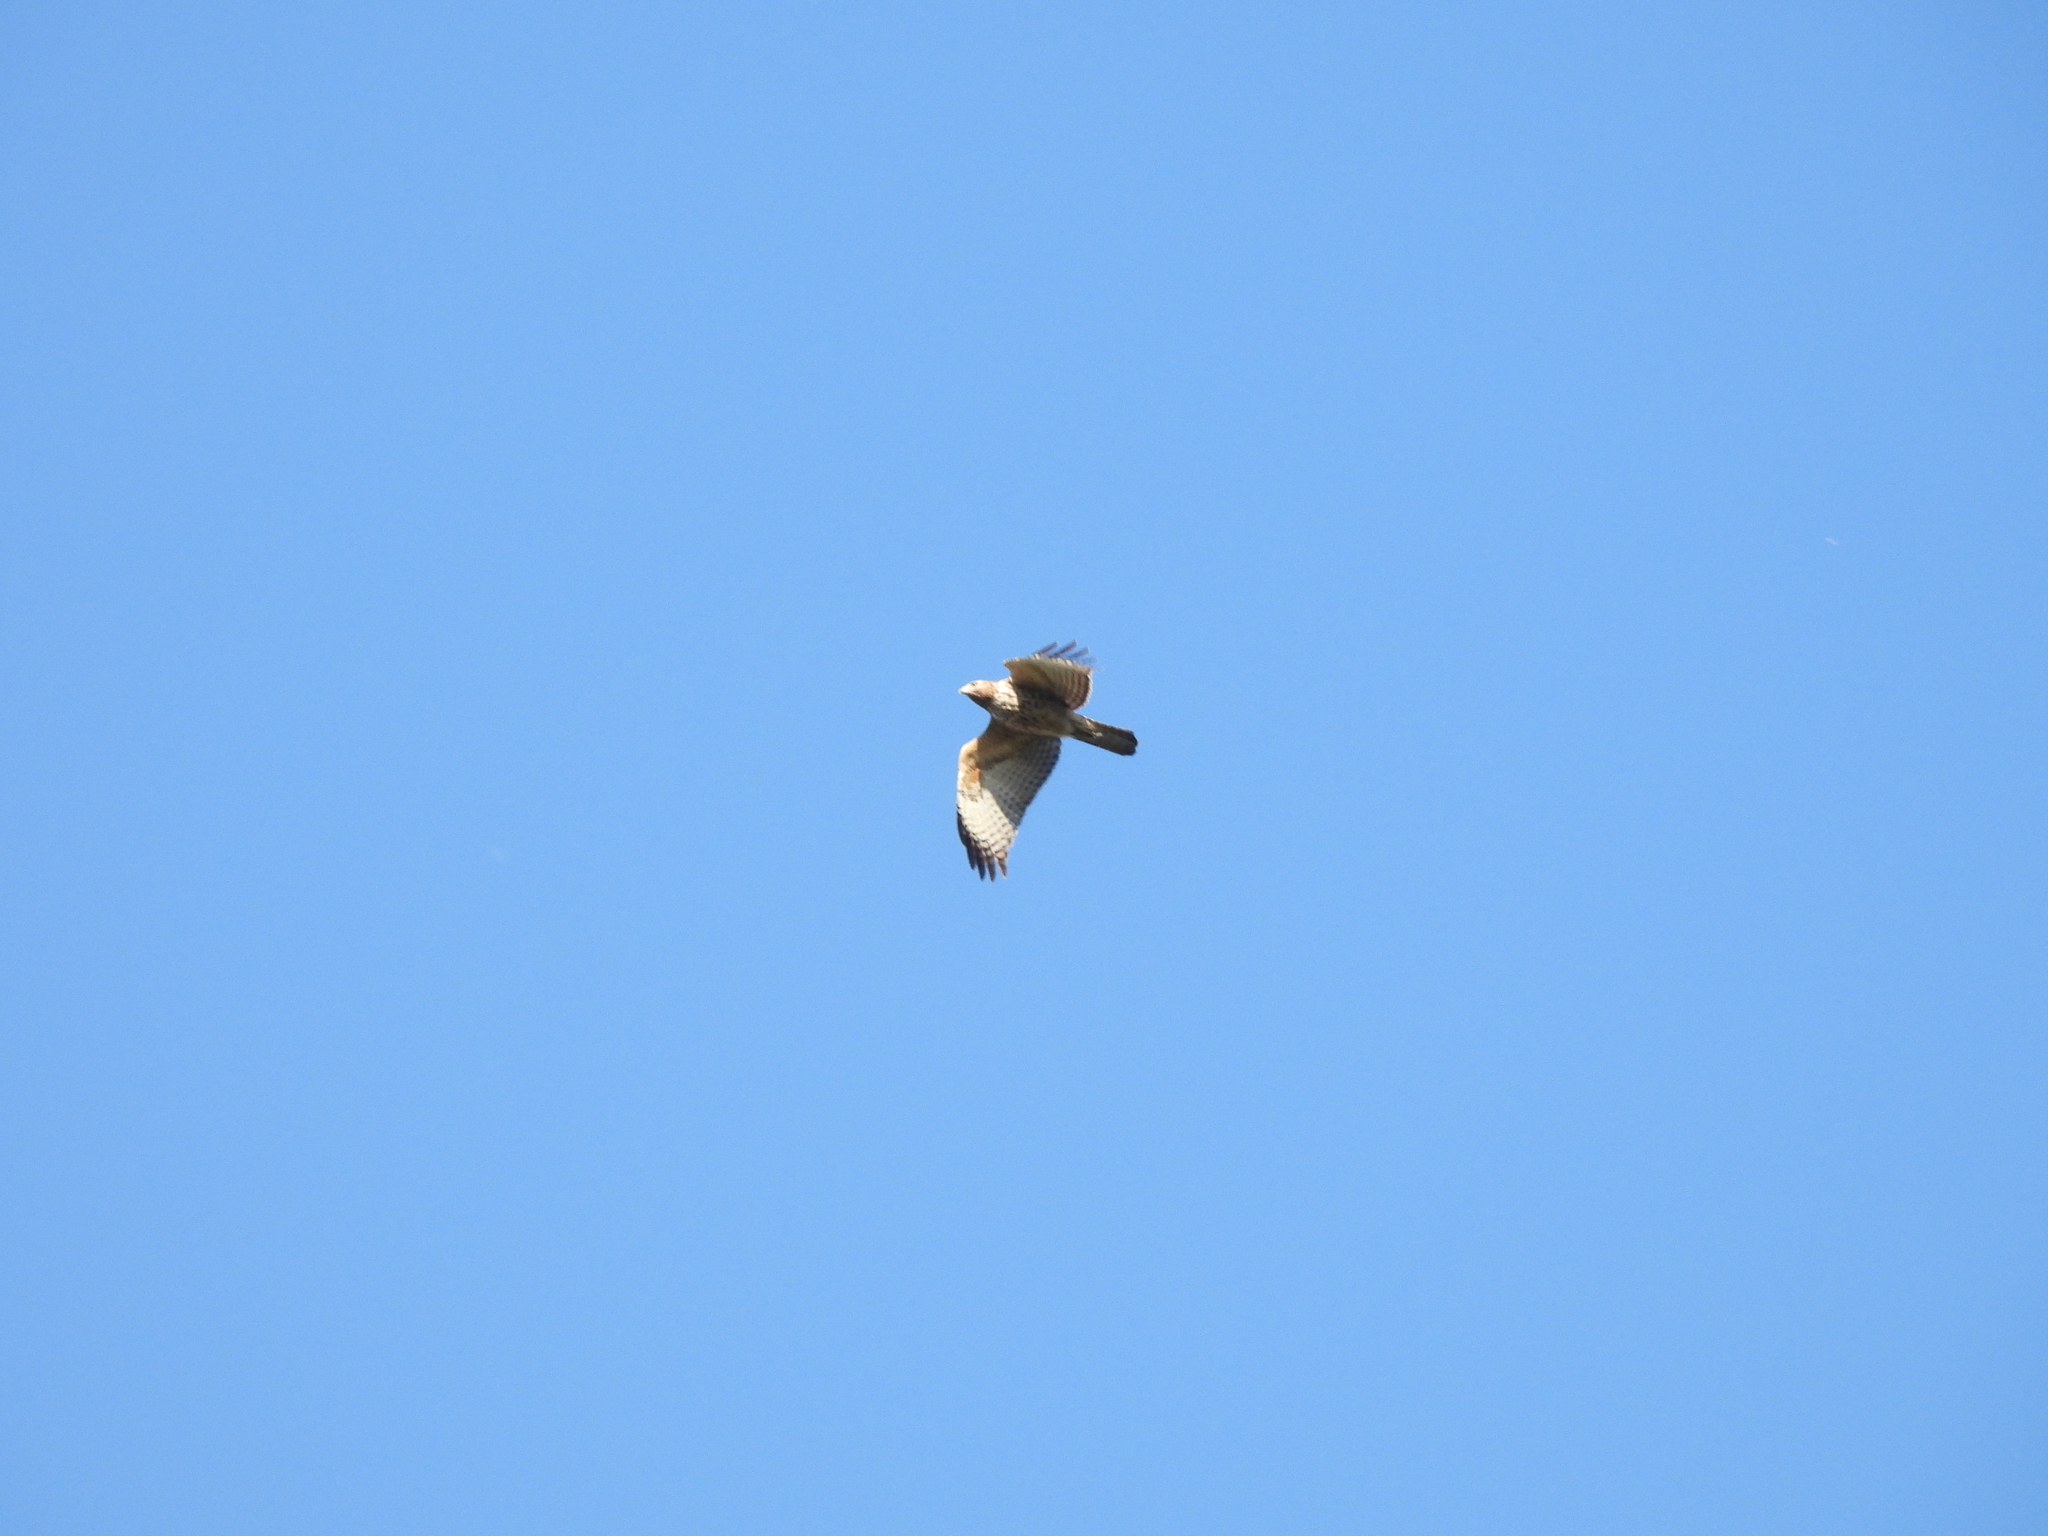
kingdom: Animalia
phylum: Chordata
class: Aves
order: Accipitriformes
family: Accipitridae
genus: Buteo
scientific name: Buteo lineatus
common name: Red-shouldered hawk
